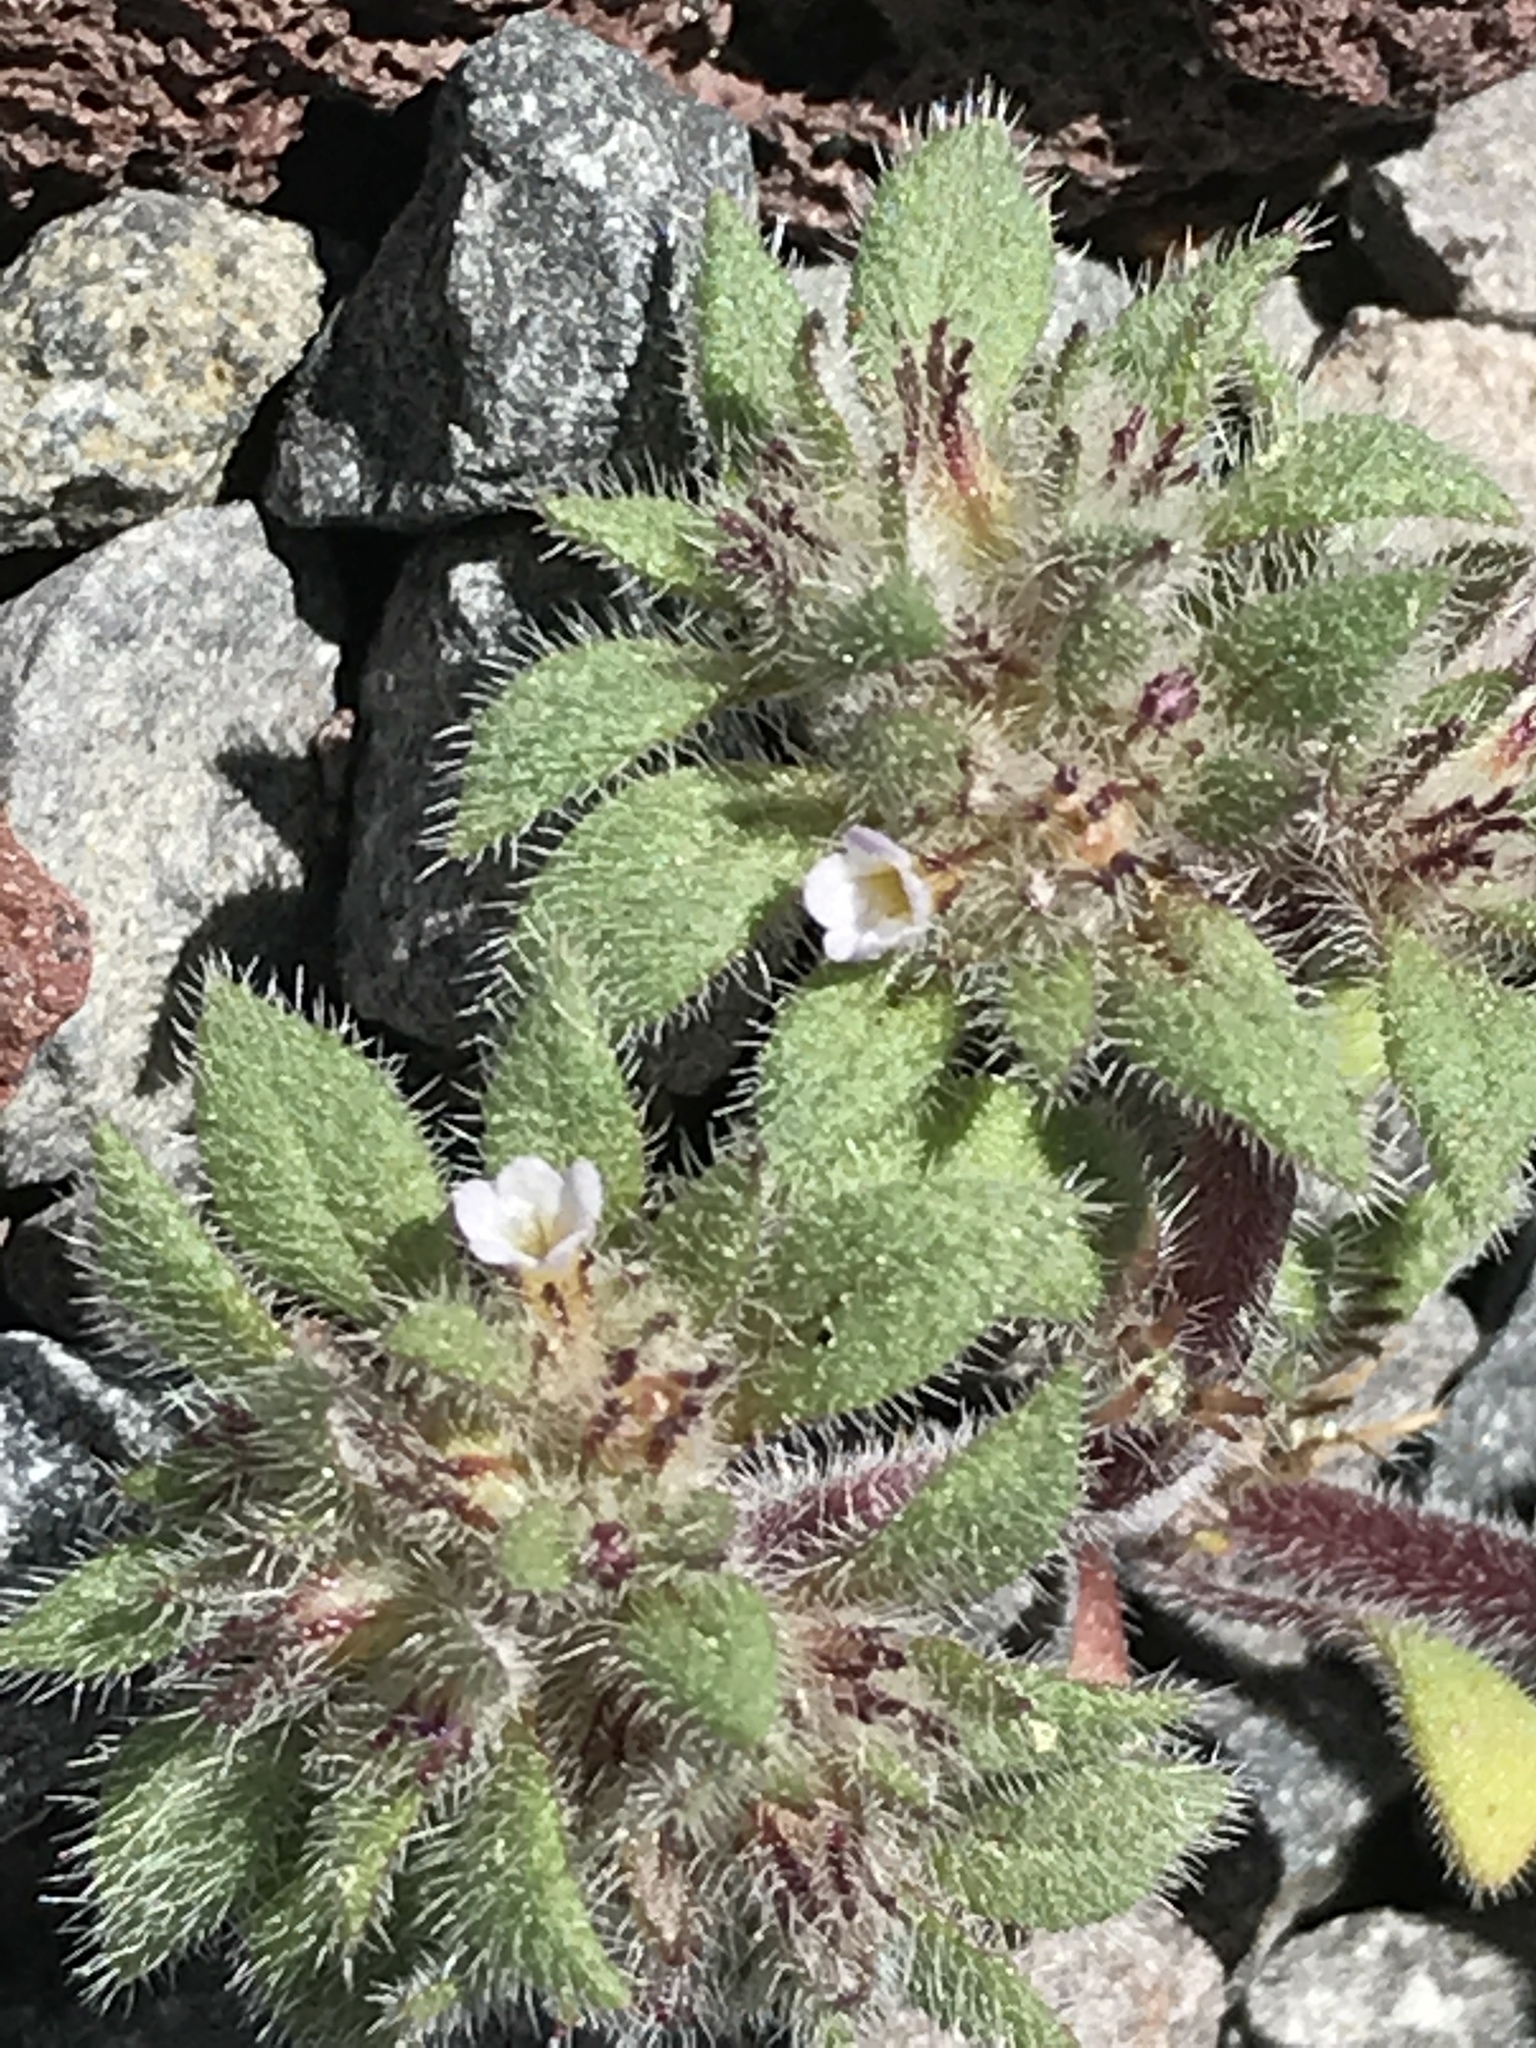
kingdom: Plantae
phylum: Tracheophyta
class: Magnoliopsida
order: Boraginales
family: Namaceae
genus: Nama
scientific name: Nama densa
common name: Leafy nama
